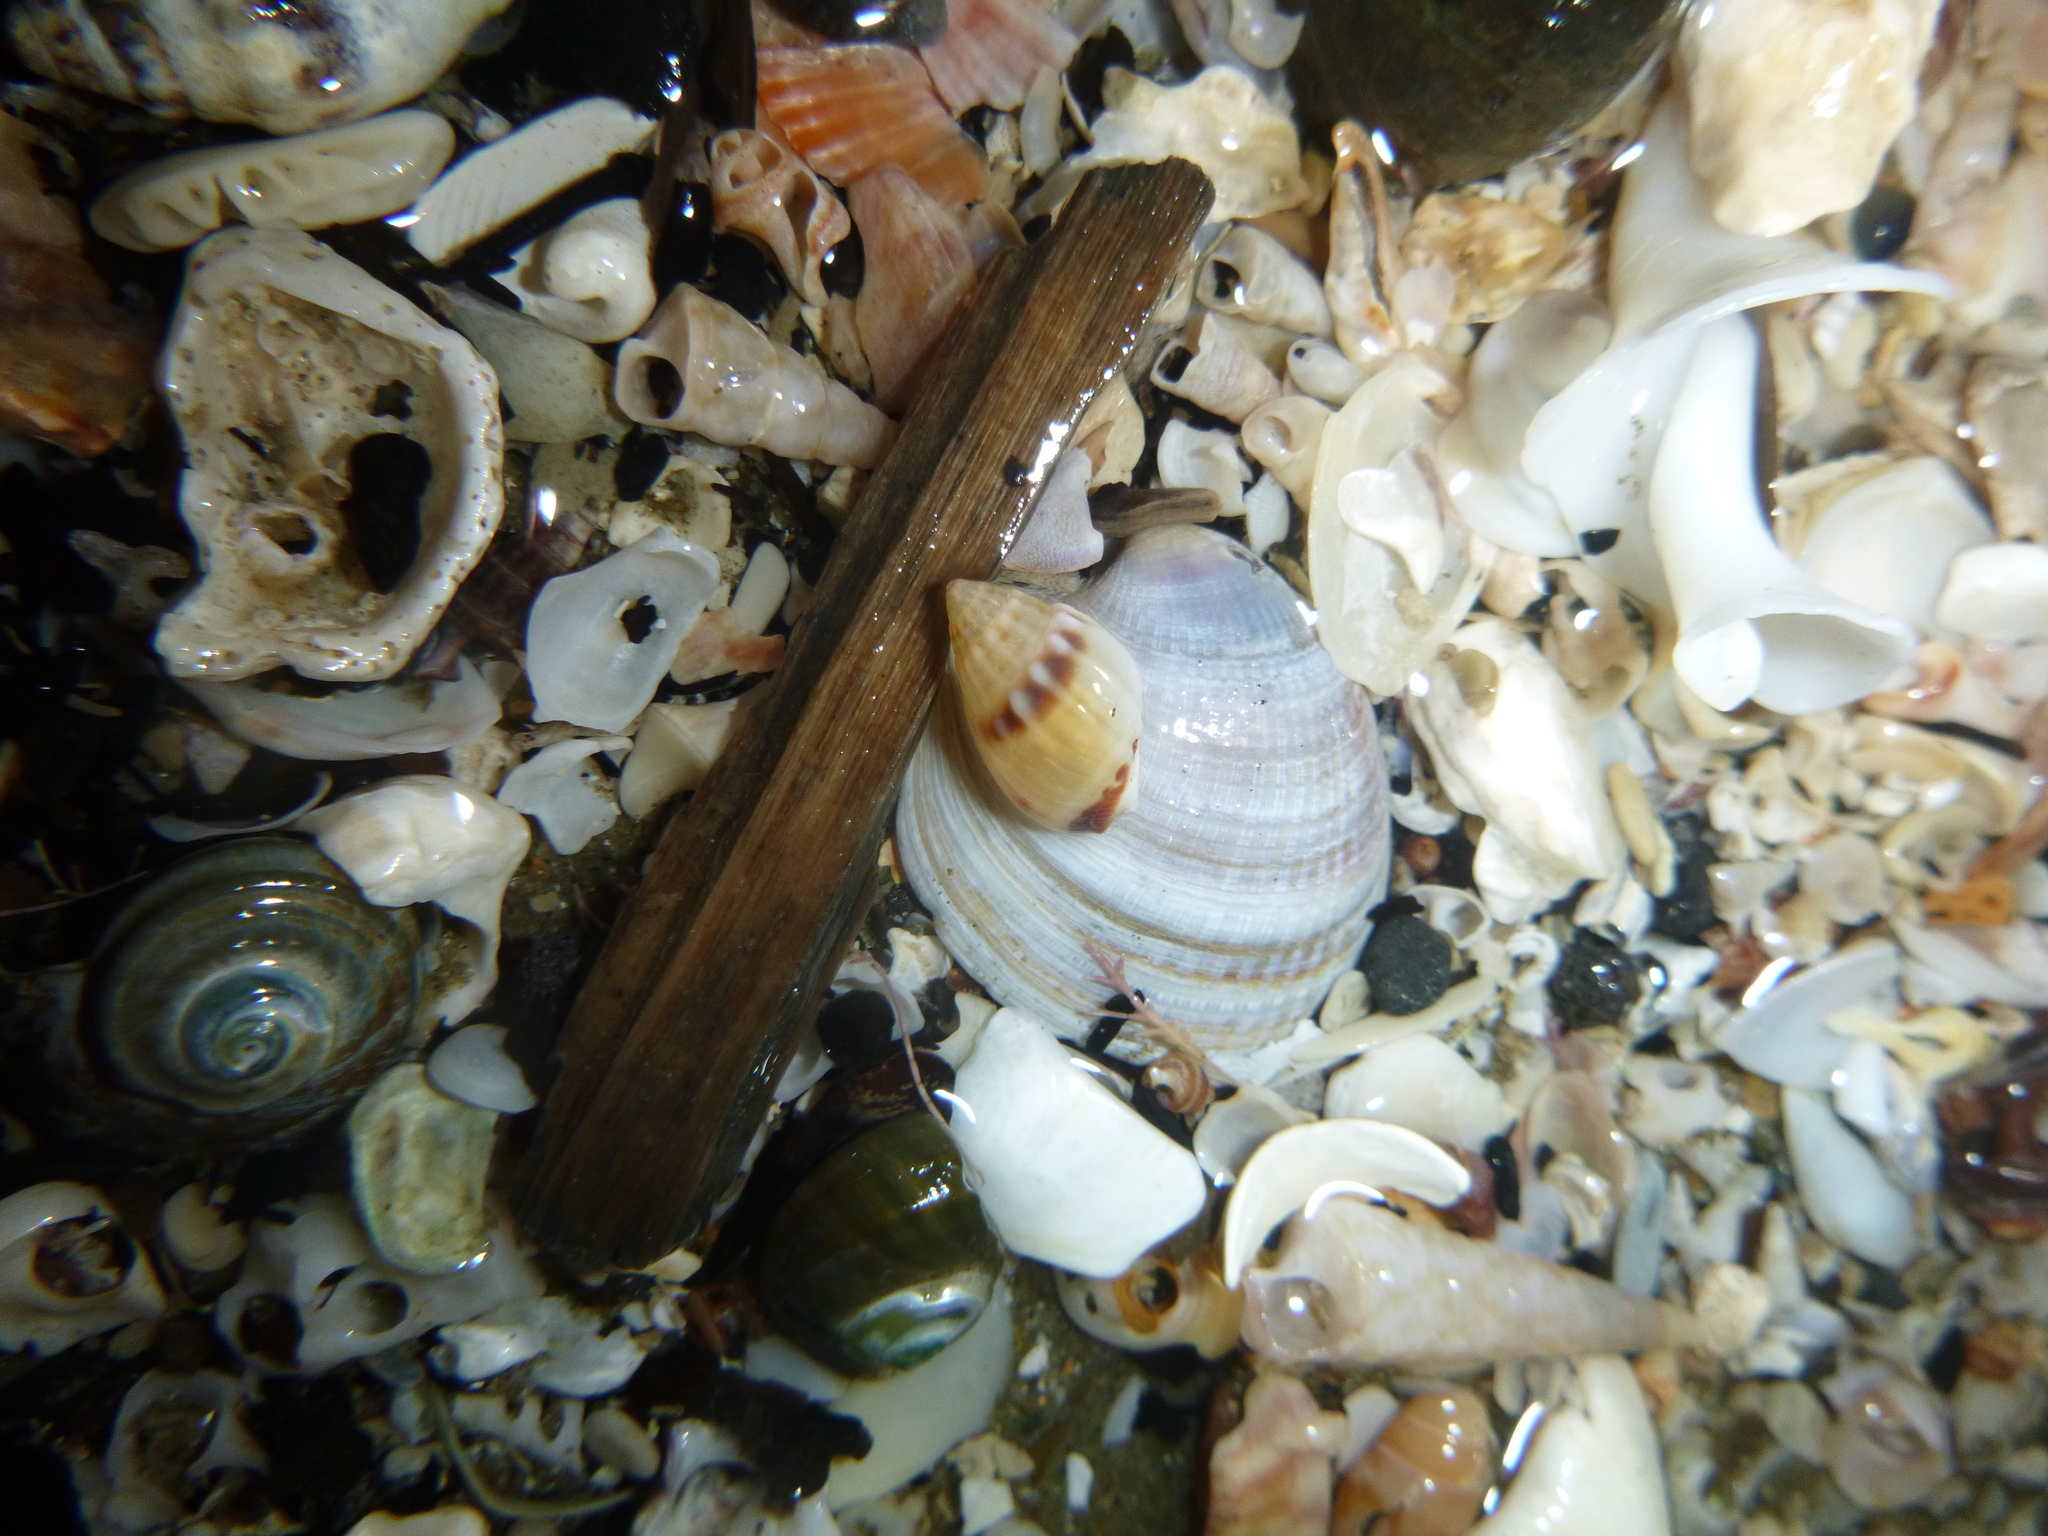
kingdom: Animalia
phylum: Mollusca
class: Gastropoda
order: Neogastropoda
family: Nassariidae
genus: Tritia
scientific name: Tritia burchardi
